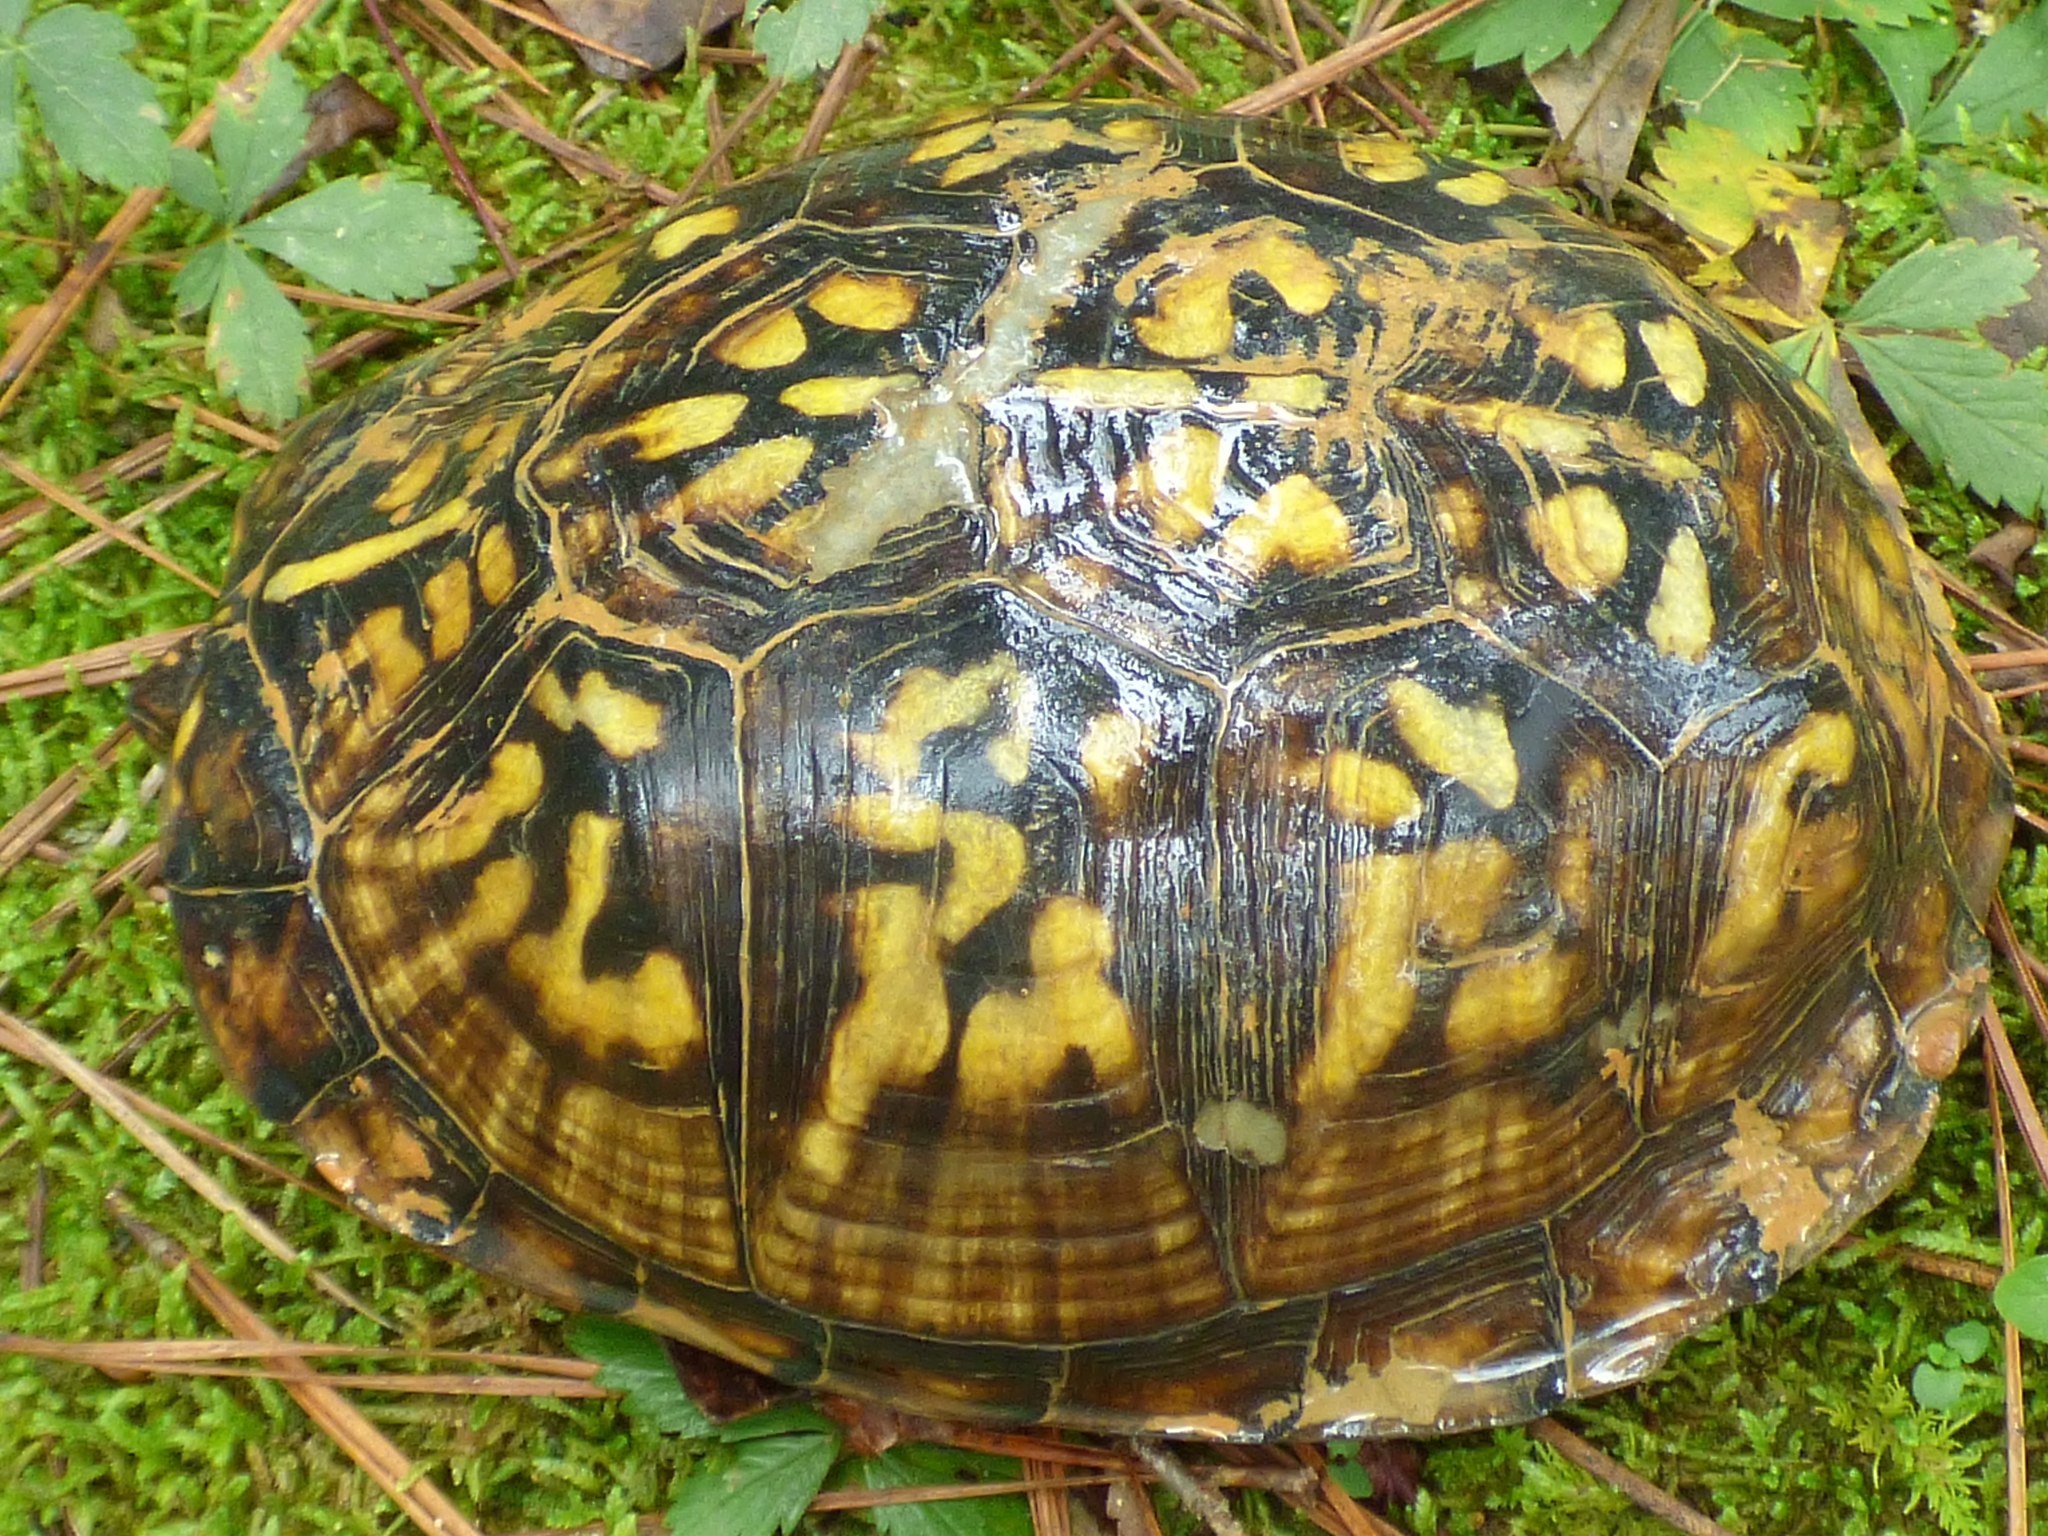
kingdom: Animalia
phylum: Chordata
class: Testudines
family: Emydidae
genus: Terrapene
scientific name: Terrapene carolina
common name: Common box turtle
